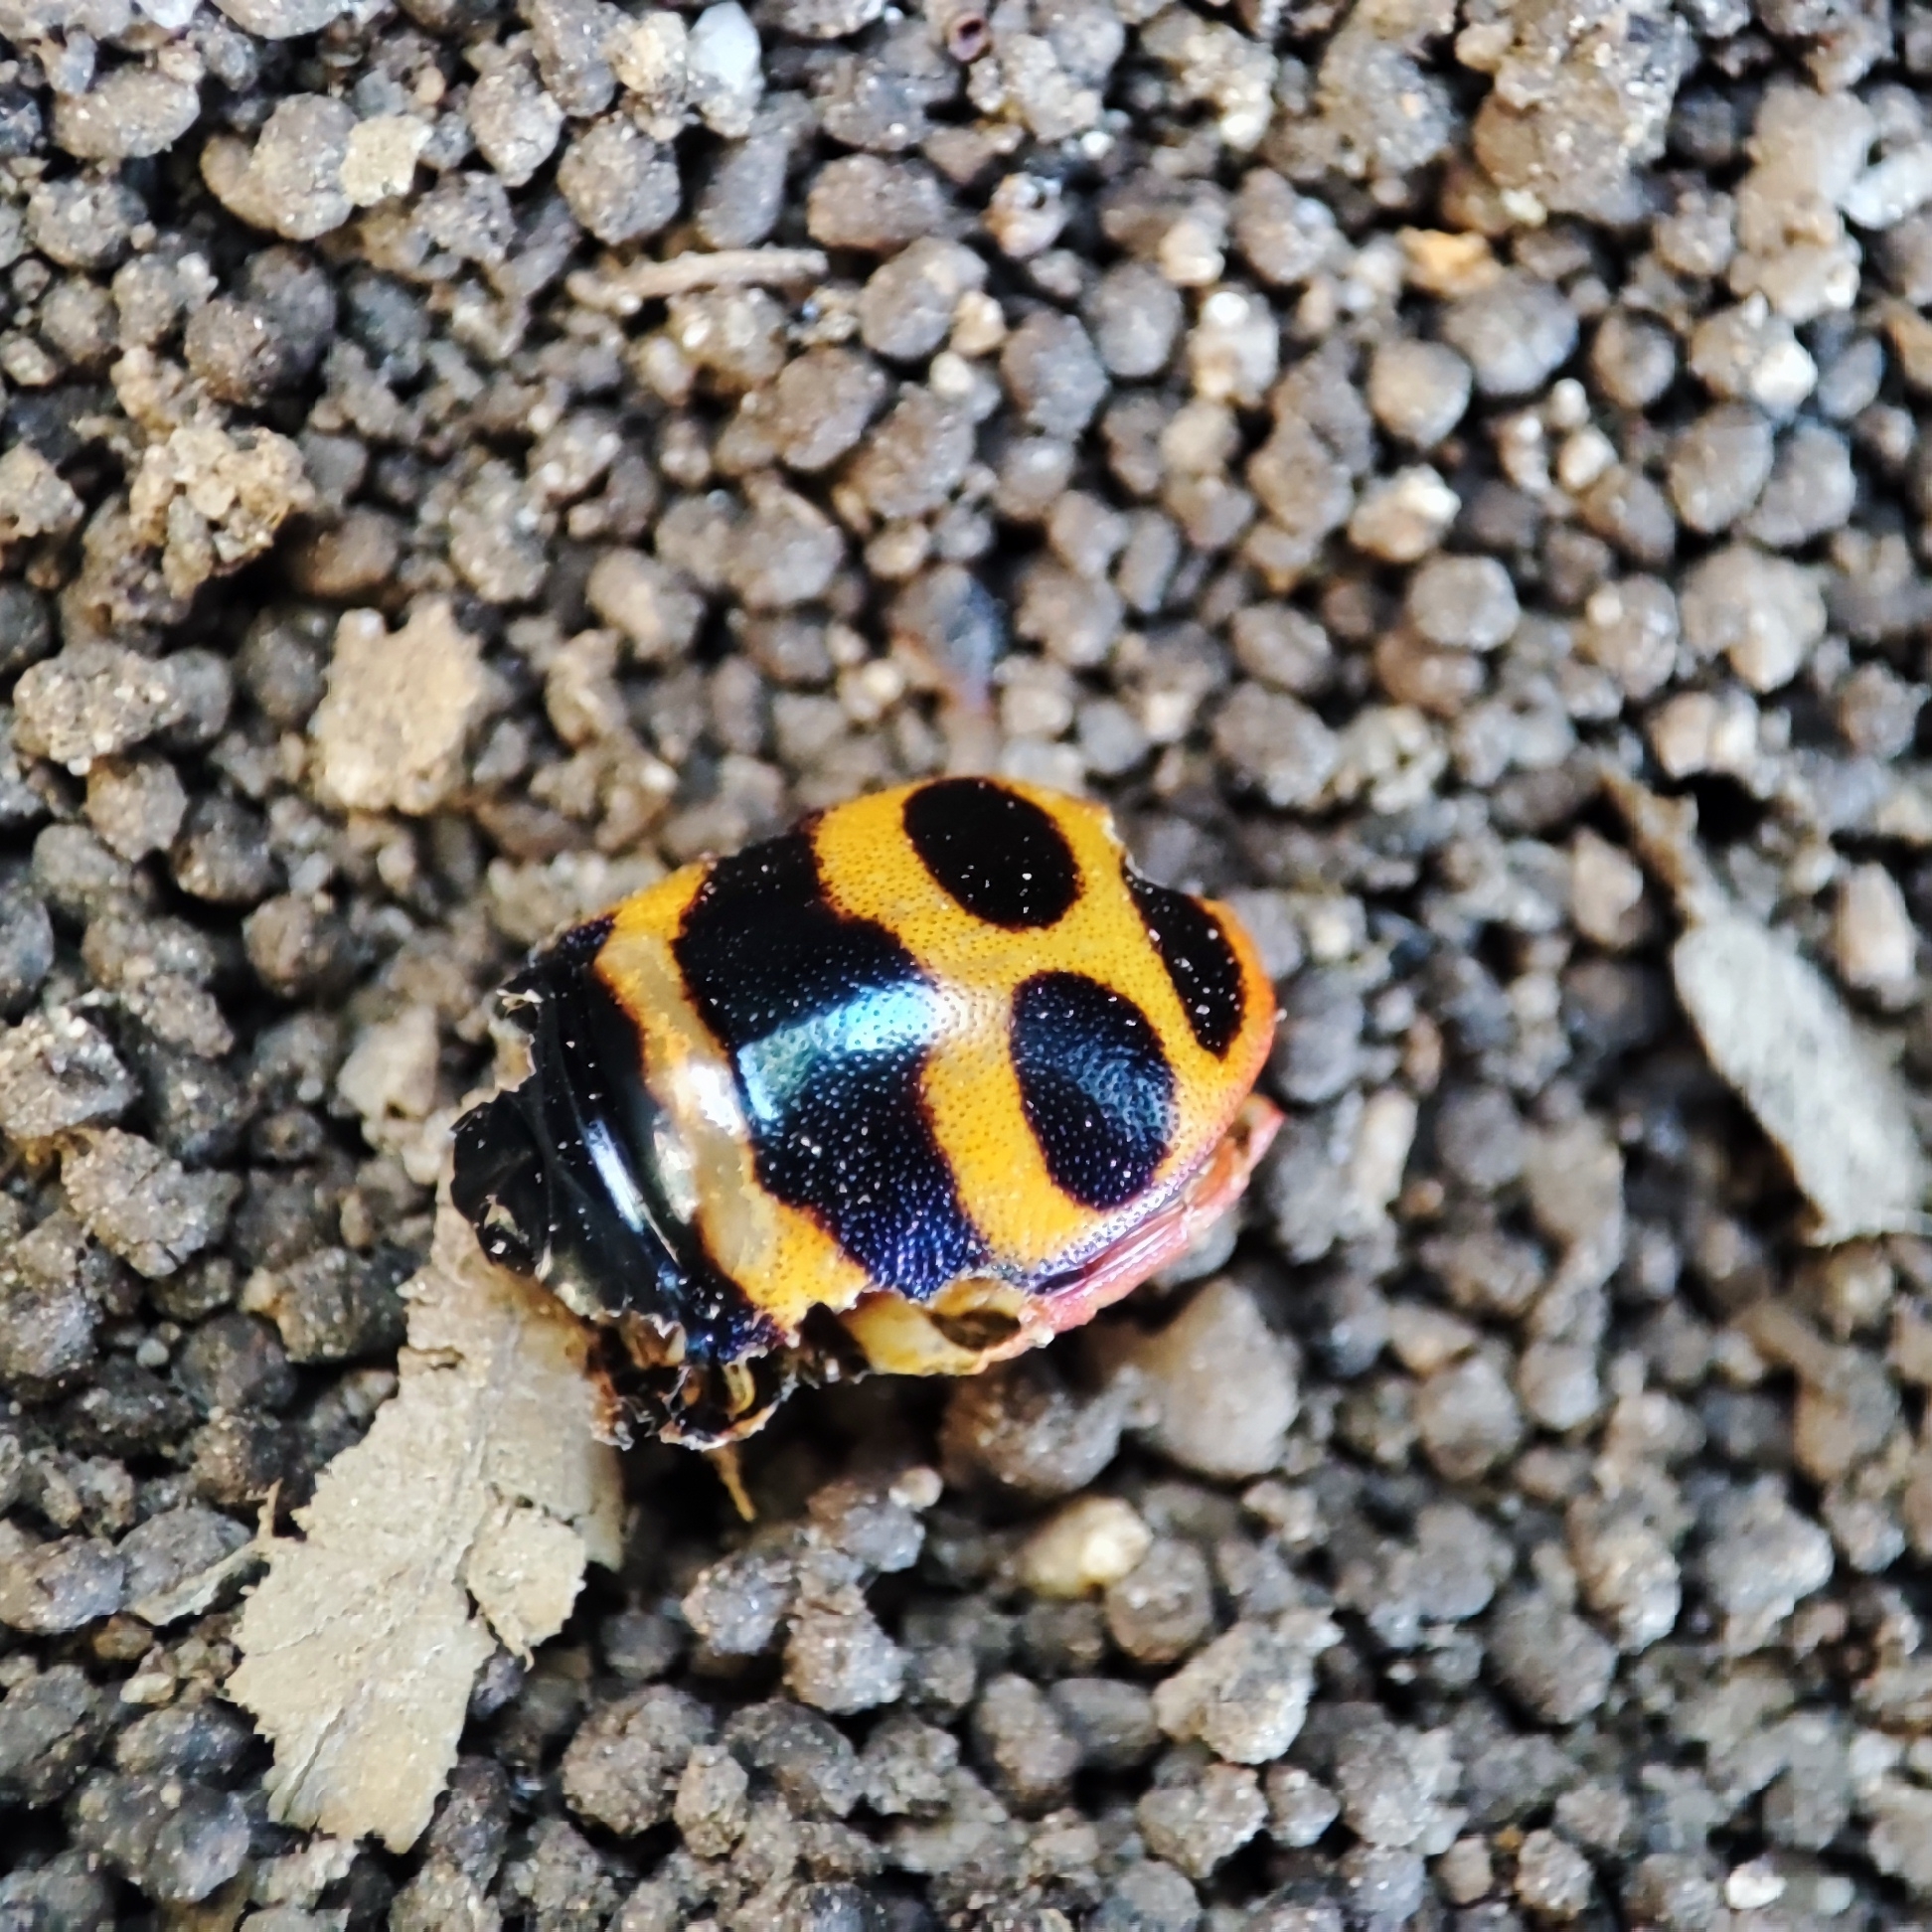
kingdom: Animalia
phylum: Arthropoda
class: Insecta
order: Hemiptera
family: Scutelleridae
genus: Chrysocoris
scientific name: Chrysocoris fascialis
